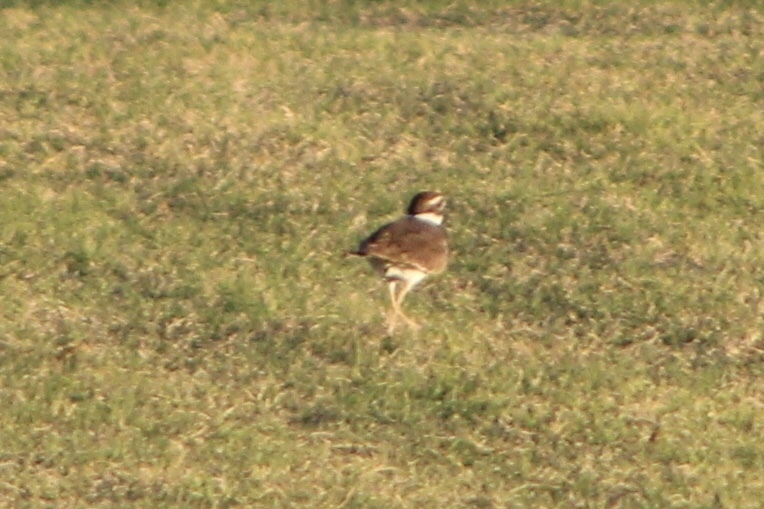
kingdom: Animalia
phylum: Chordata
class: Aves
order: Charadriiformes
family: Charadriidae
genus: Charadrius
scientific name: Charadrius vociferus
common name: Killdeer
